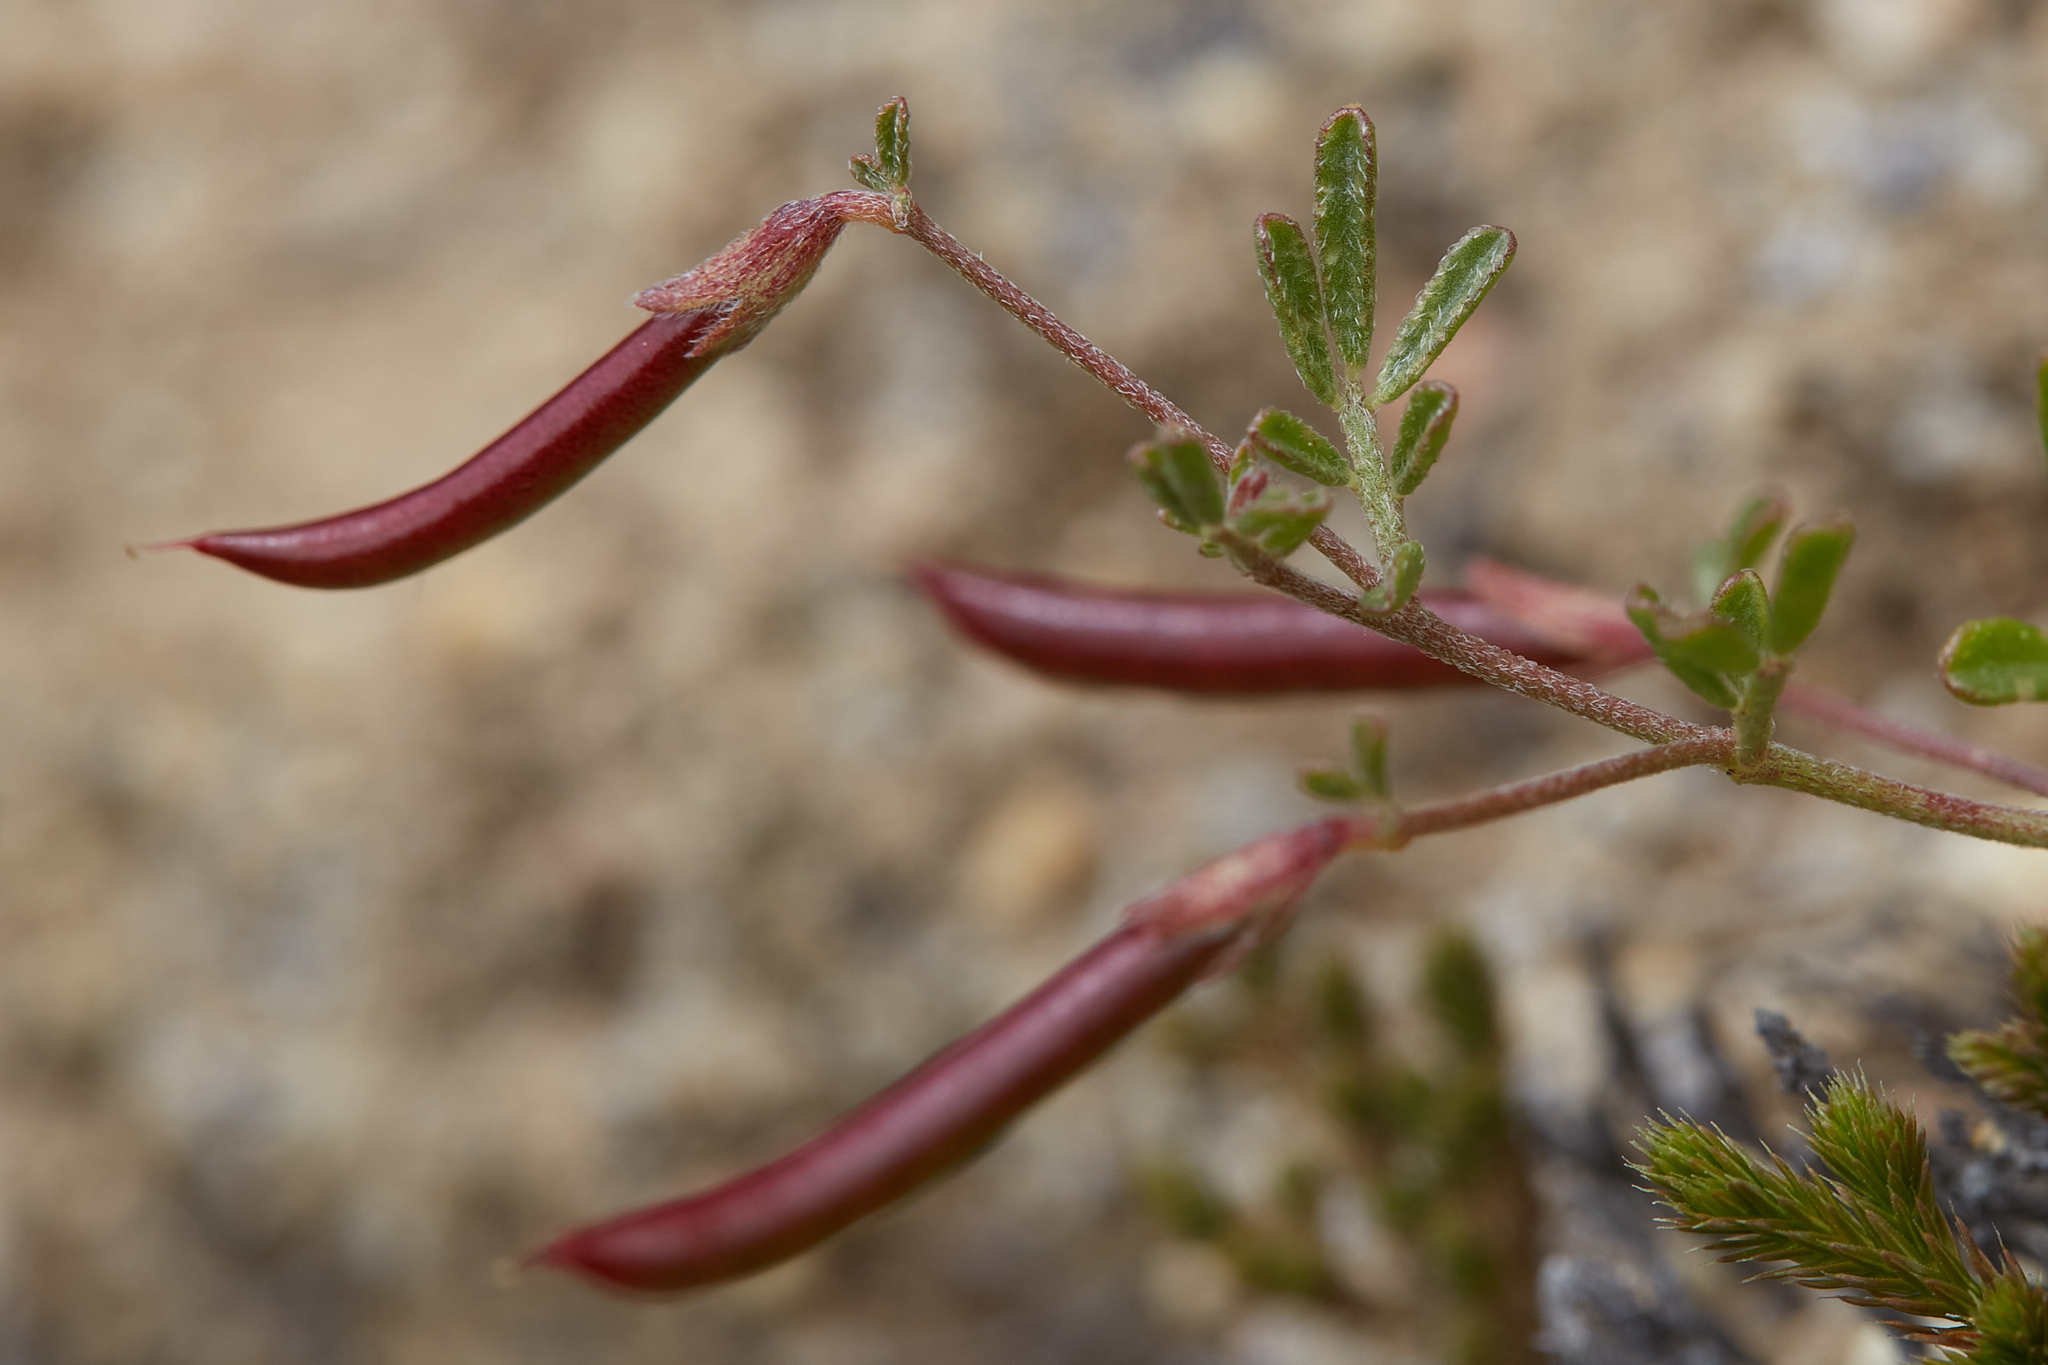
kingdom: Plantae
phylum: Tracheophyta
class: Magnoliopsida
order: Fabales
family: Fabaceae
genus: Acmispon
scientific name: Acmispon strigosus
